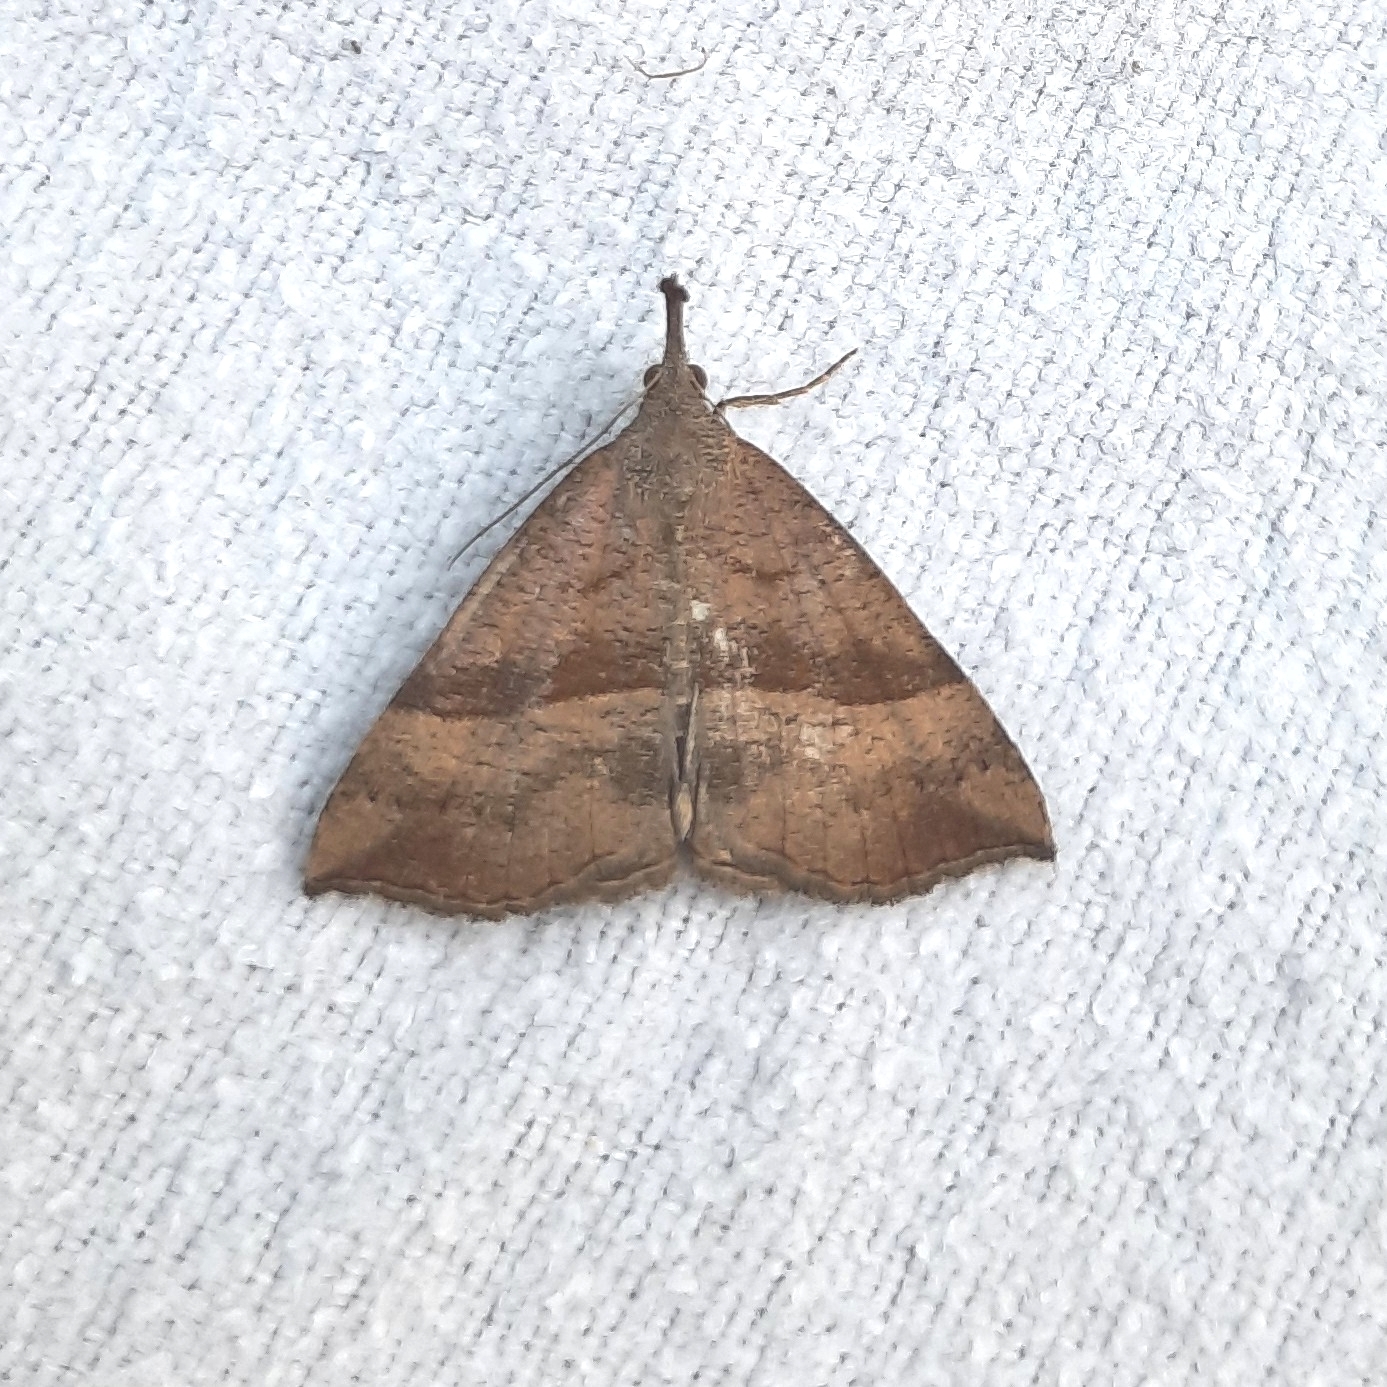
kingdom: Animalia
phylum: Arthropoda
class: Insecta
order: Lepidoptera
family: Erebidae
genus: Hypena
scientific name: Hypena proboscidalis
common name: Snout
